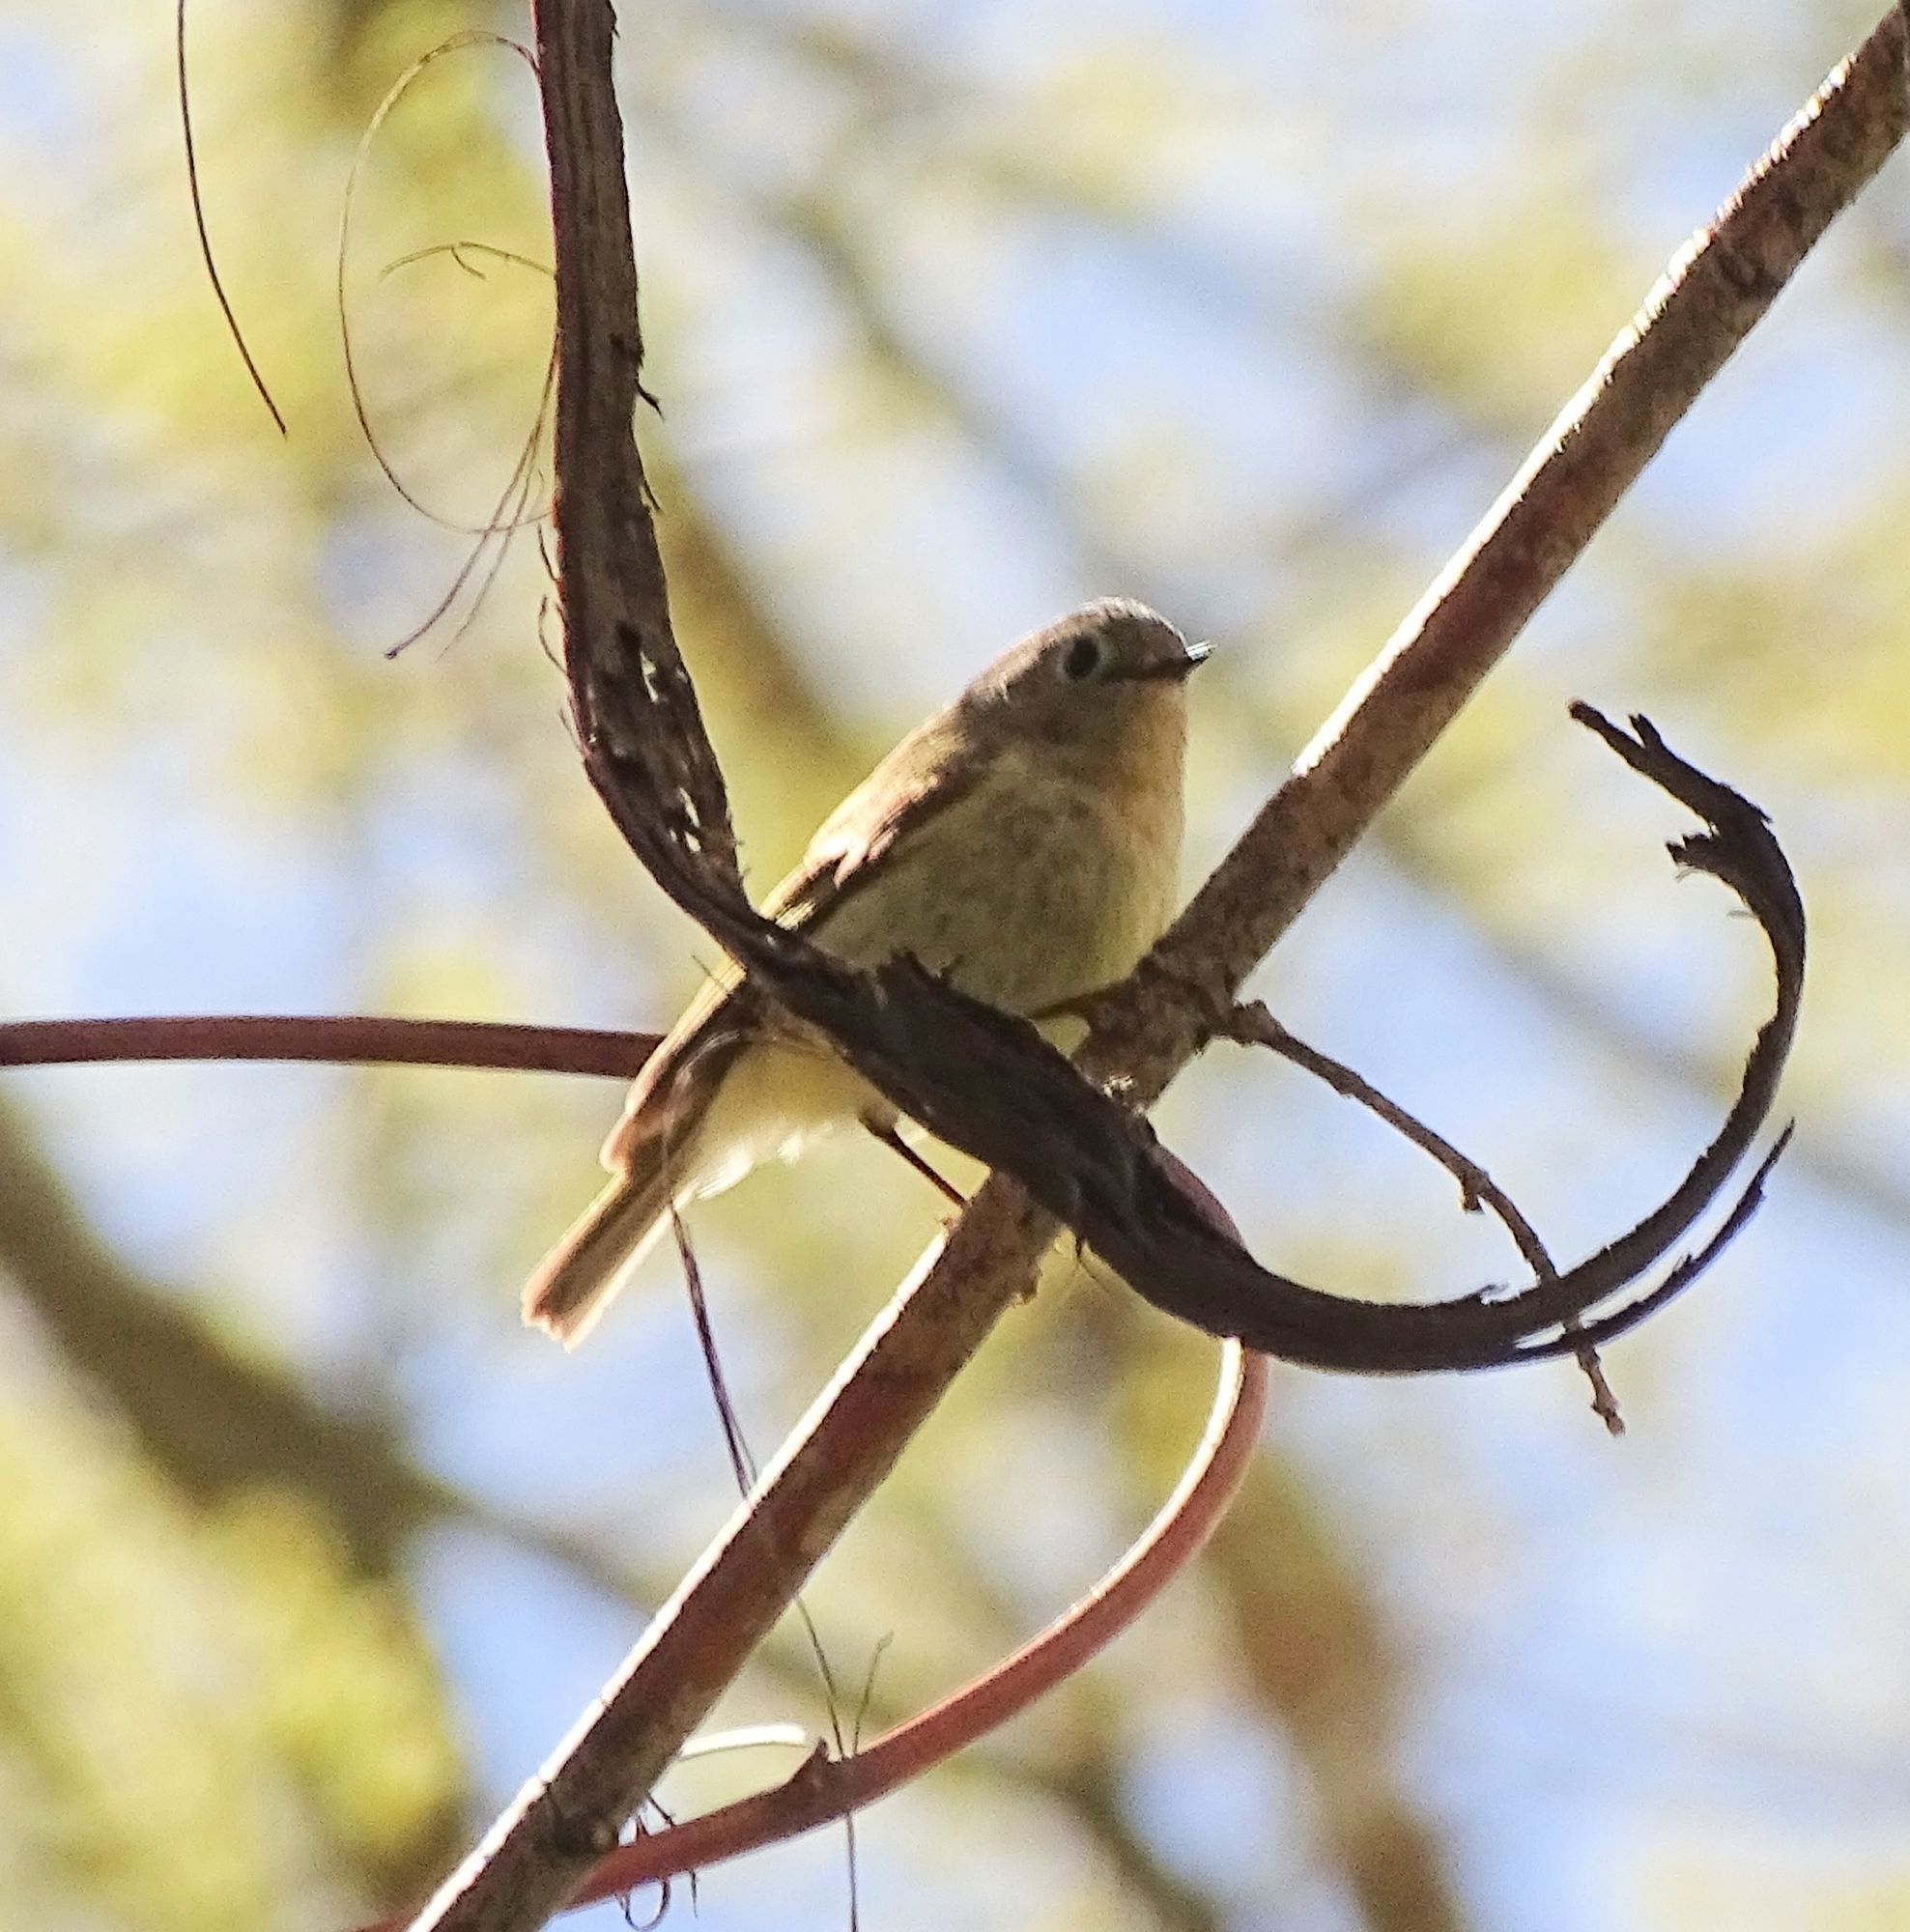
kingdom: Animalia
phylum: Chordata
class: Aves
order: Passeriformes
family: Regulidae
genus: Regulus
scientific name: Regulus calendula
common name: Ruby-crowned kinglet
